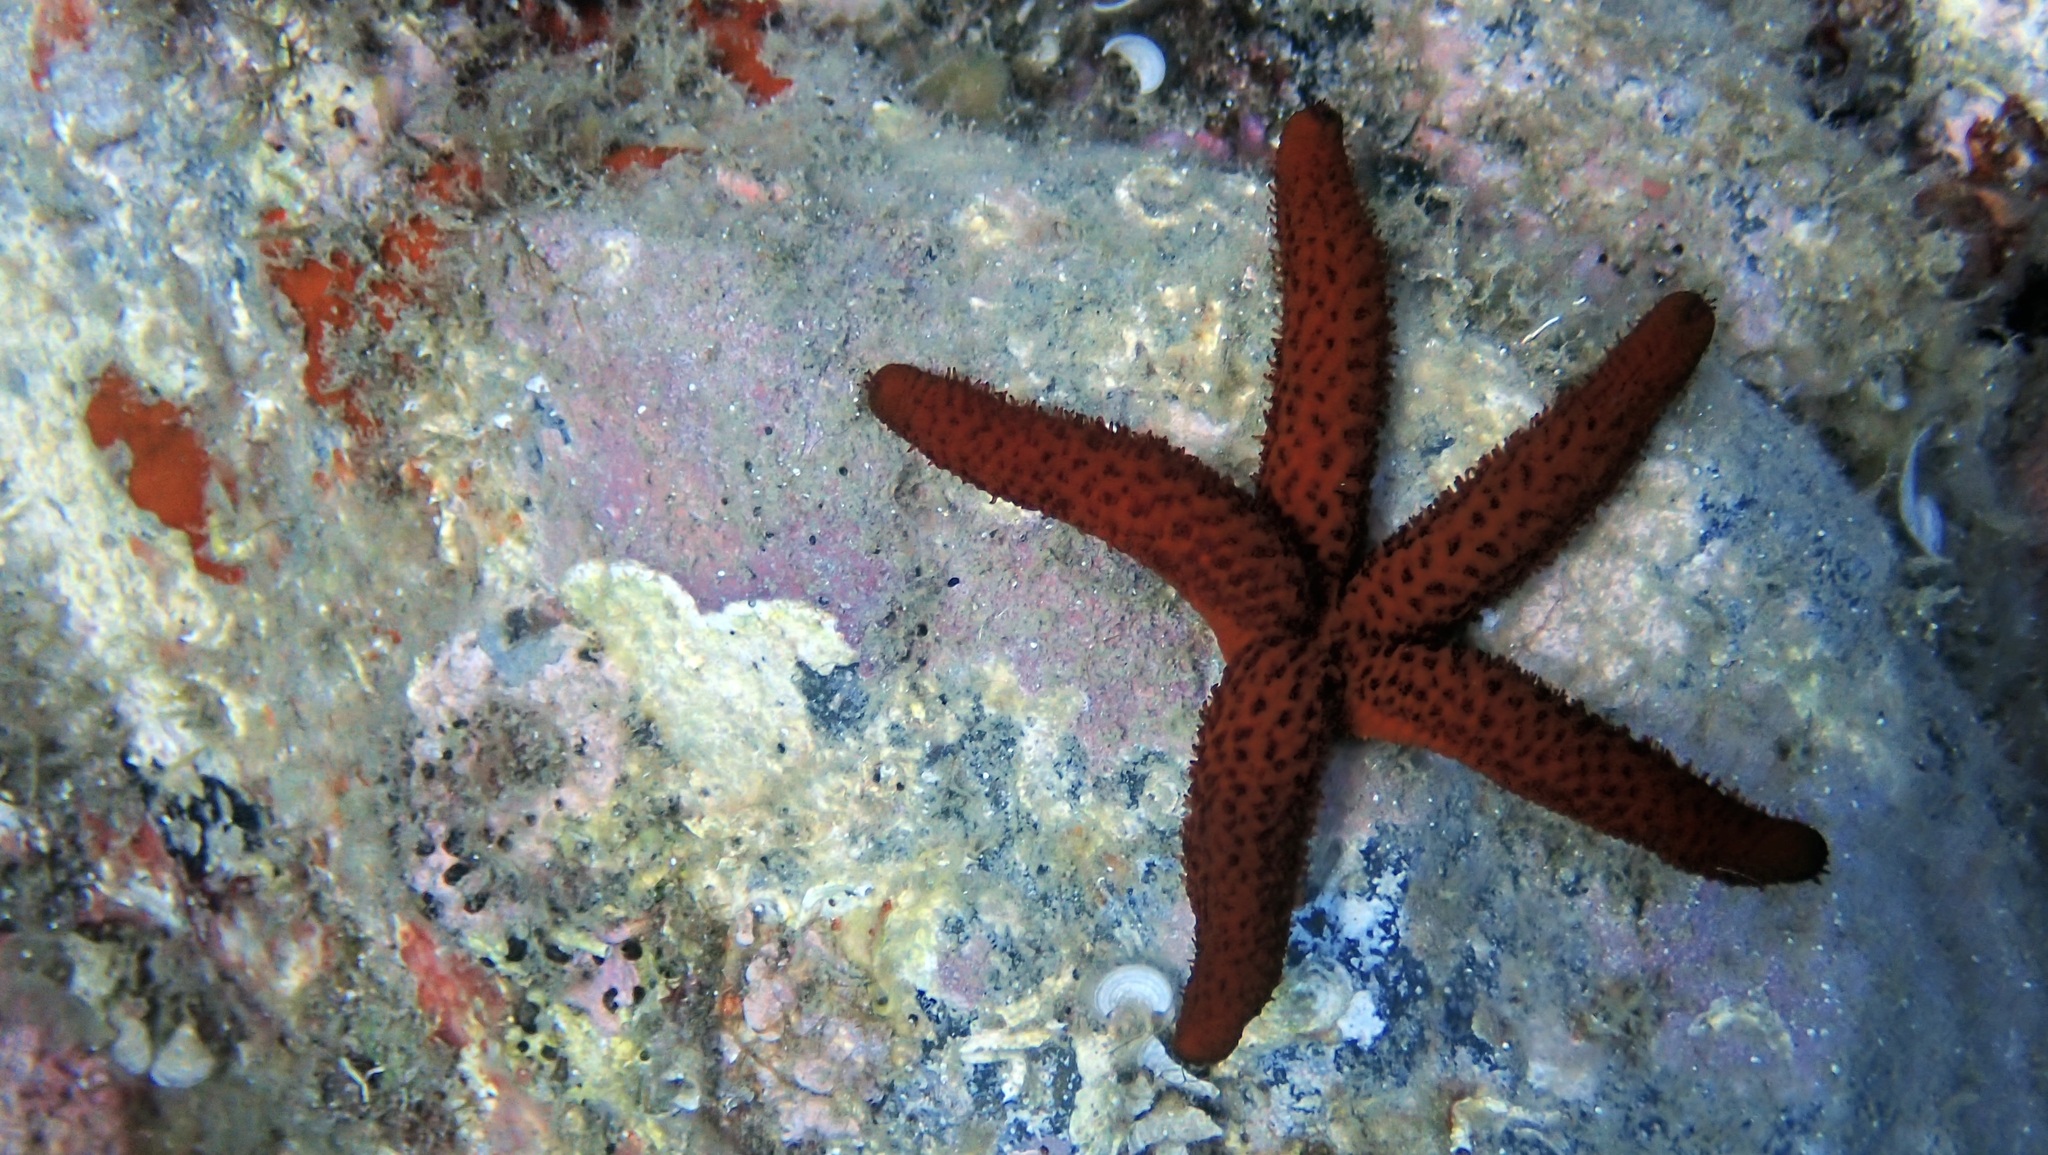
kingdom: Animalia
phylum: Echinodermata
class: Asteroidea
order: Spinulosida
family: Echinasteridae
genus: Echinaster
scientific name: Echinaster sepositus
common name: Red starfish
